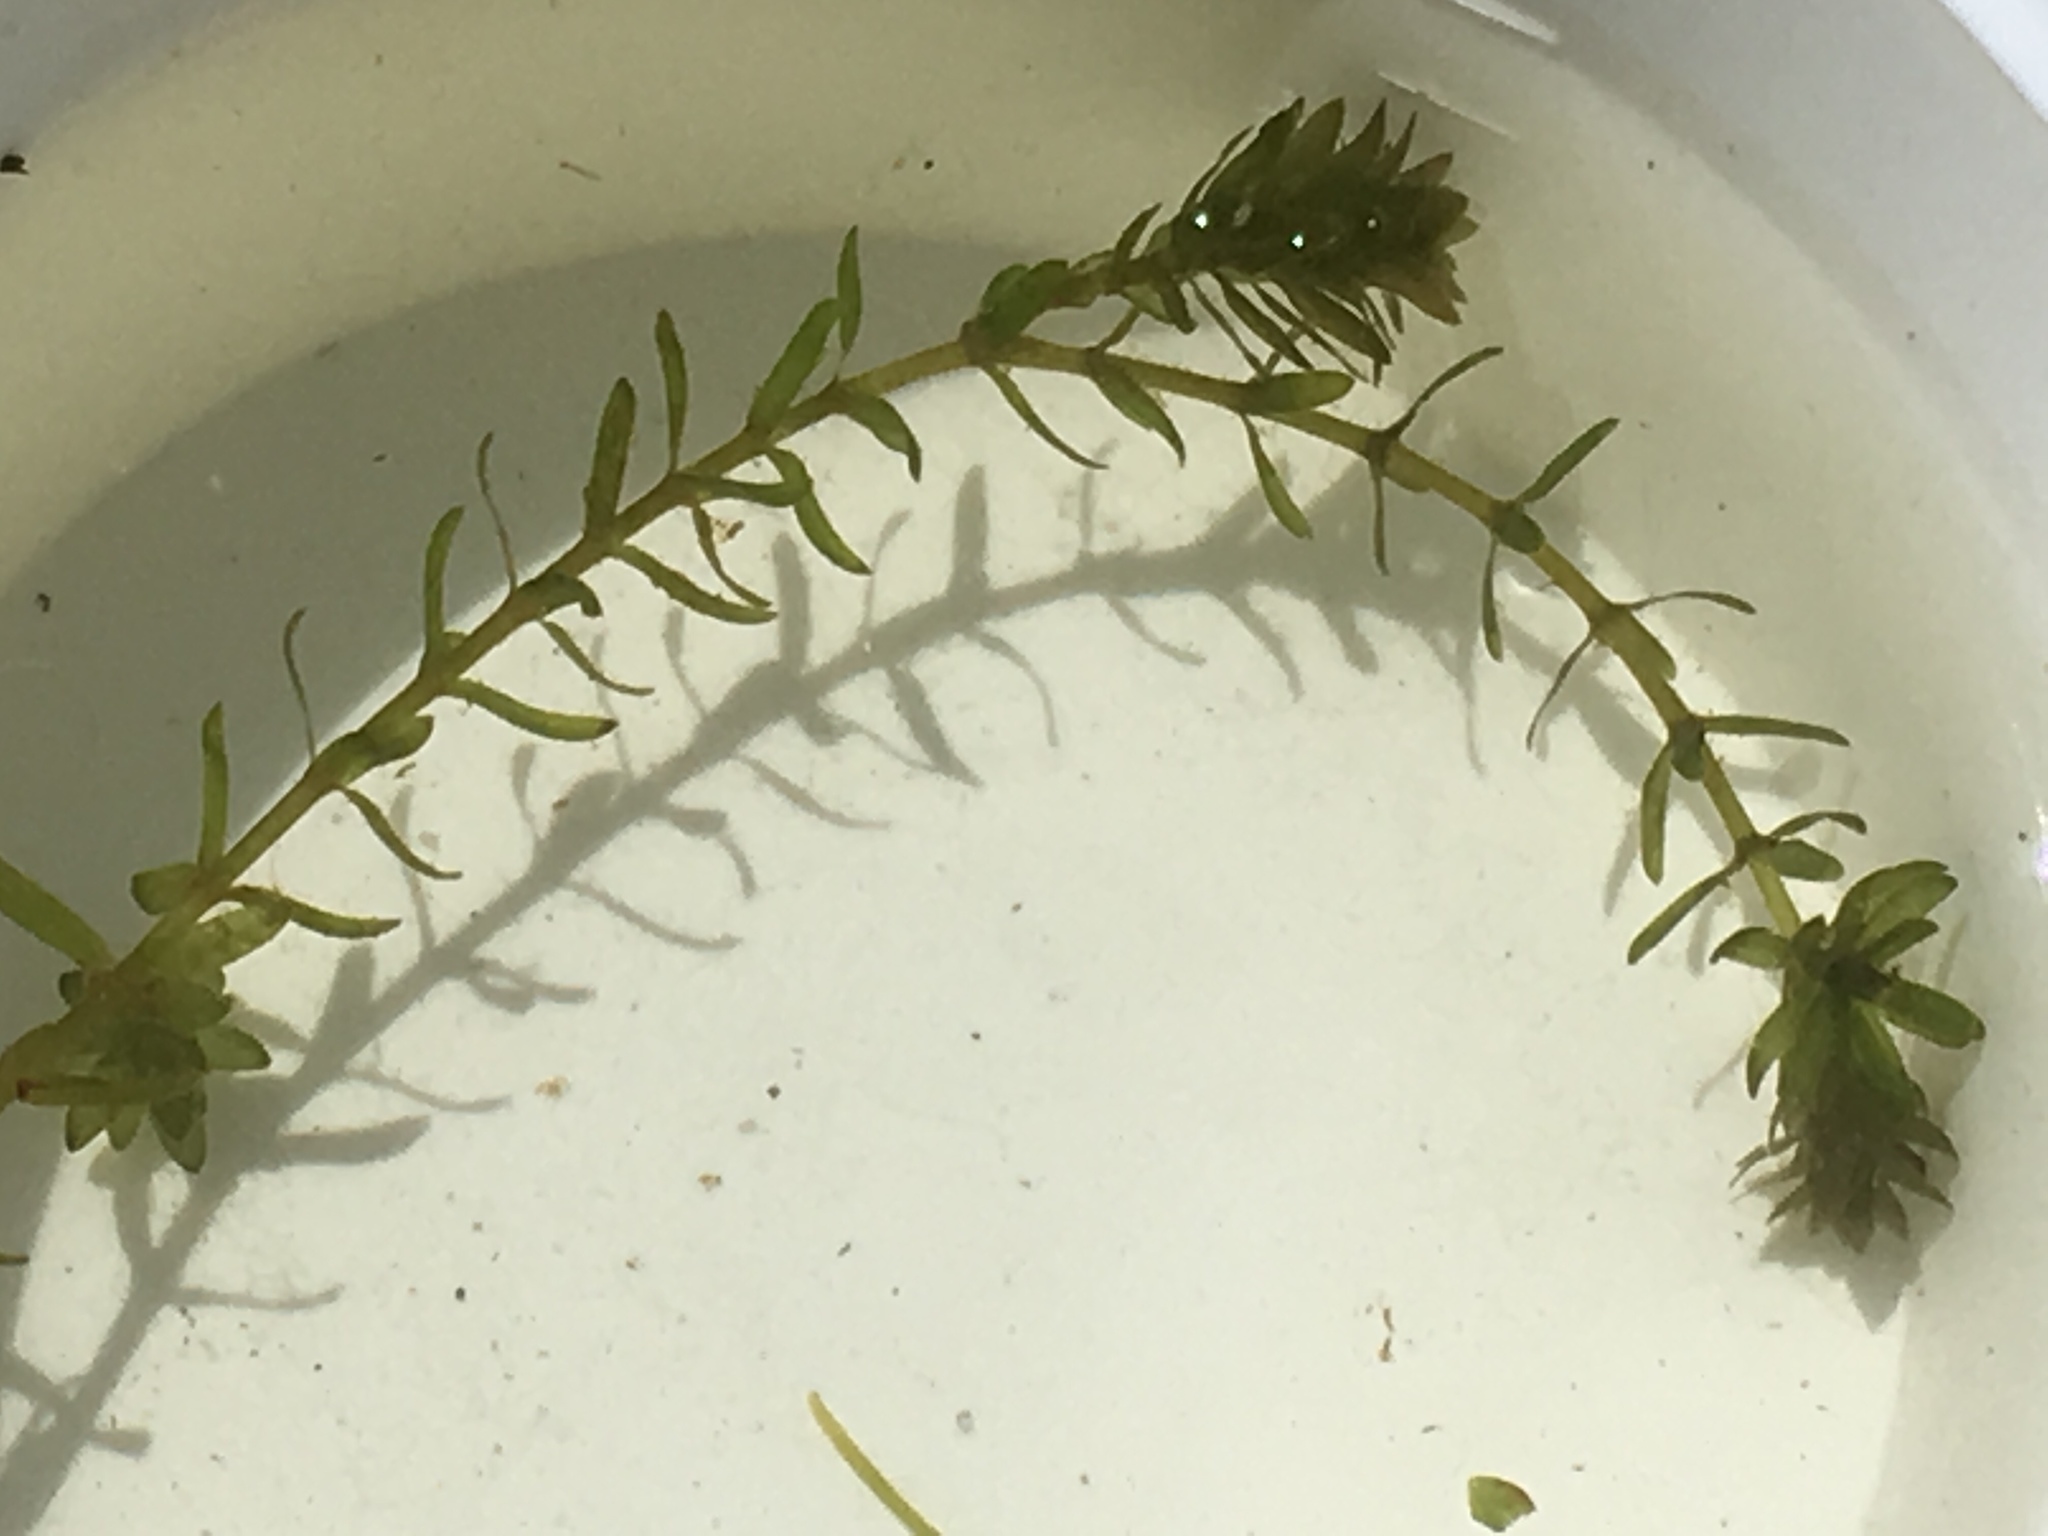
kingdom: Plantae
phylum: Tracheophyta
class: Liliopsida
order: Alismatales
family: Hydrocharitaceae
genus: Elodea
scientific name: Elodea canadensis
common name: Canadian waterweed
